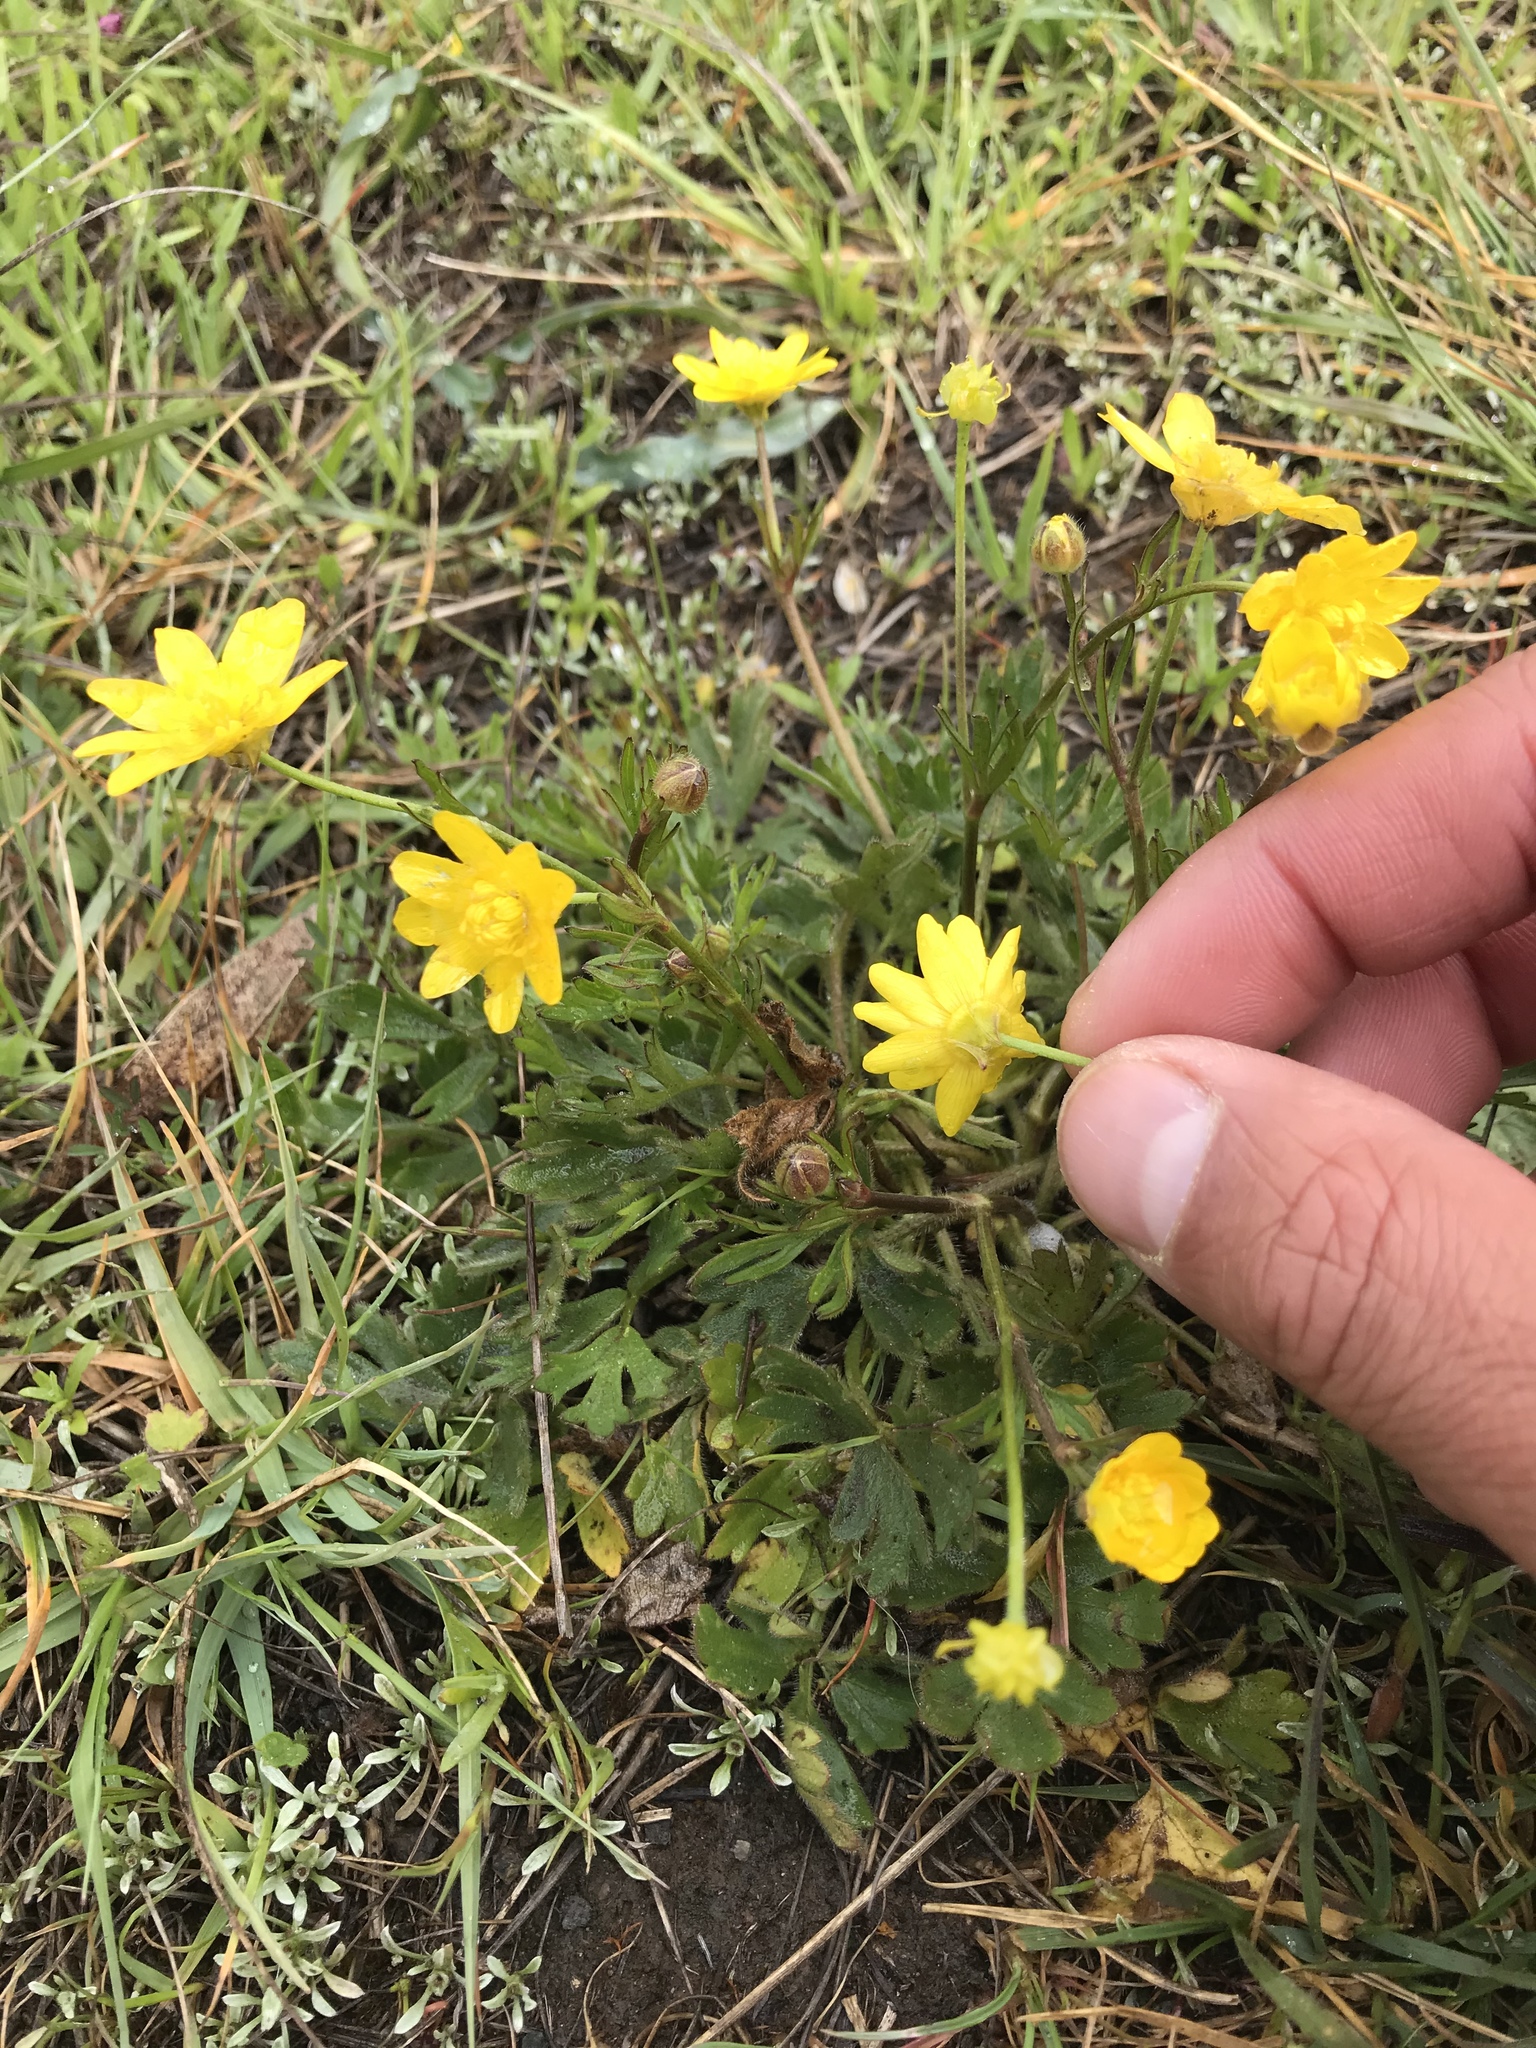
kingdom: Plantae
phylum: Tracheophyta
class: Magnoliopsida
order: Ranunculales
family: Ranunculaceae
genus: Ranunculus
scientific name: Ranunculus californicus
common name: California buttercup
